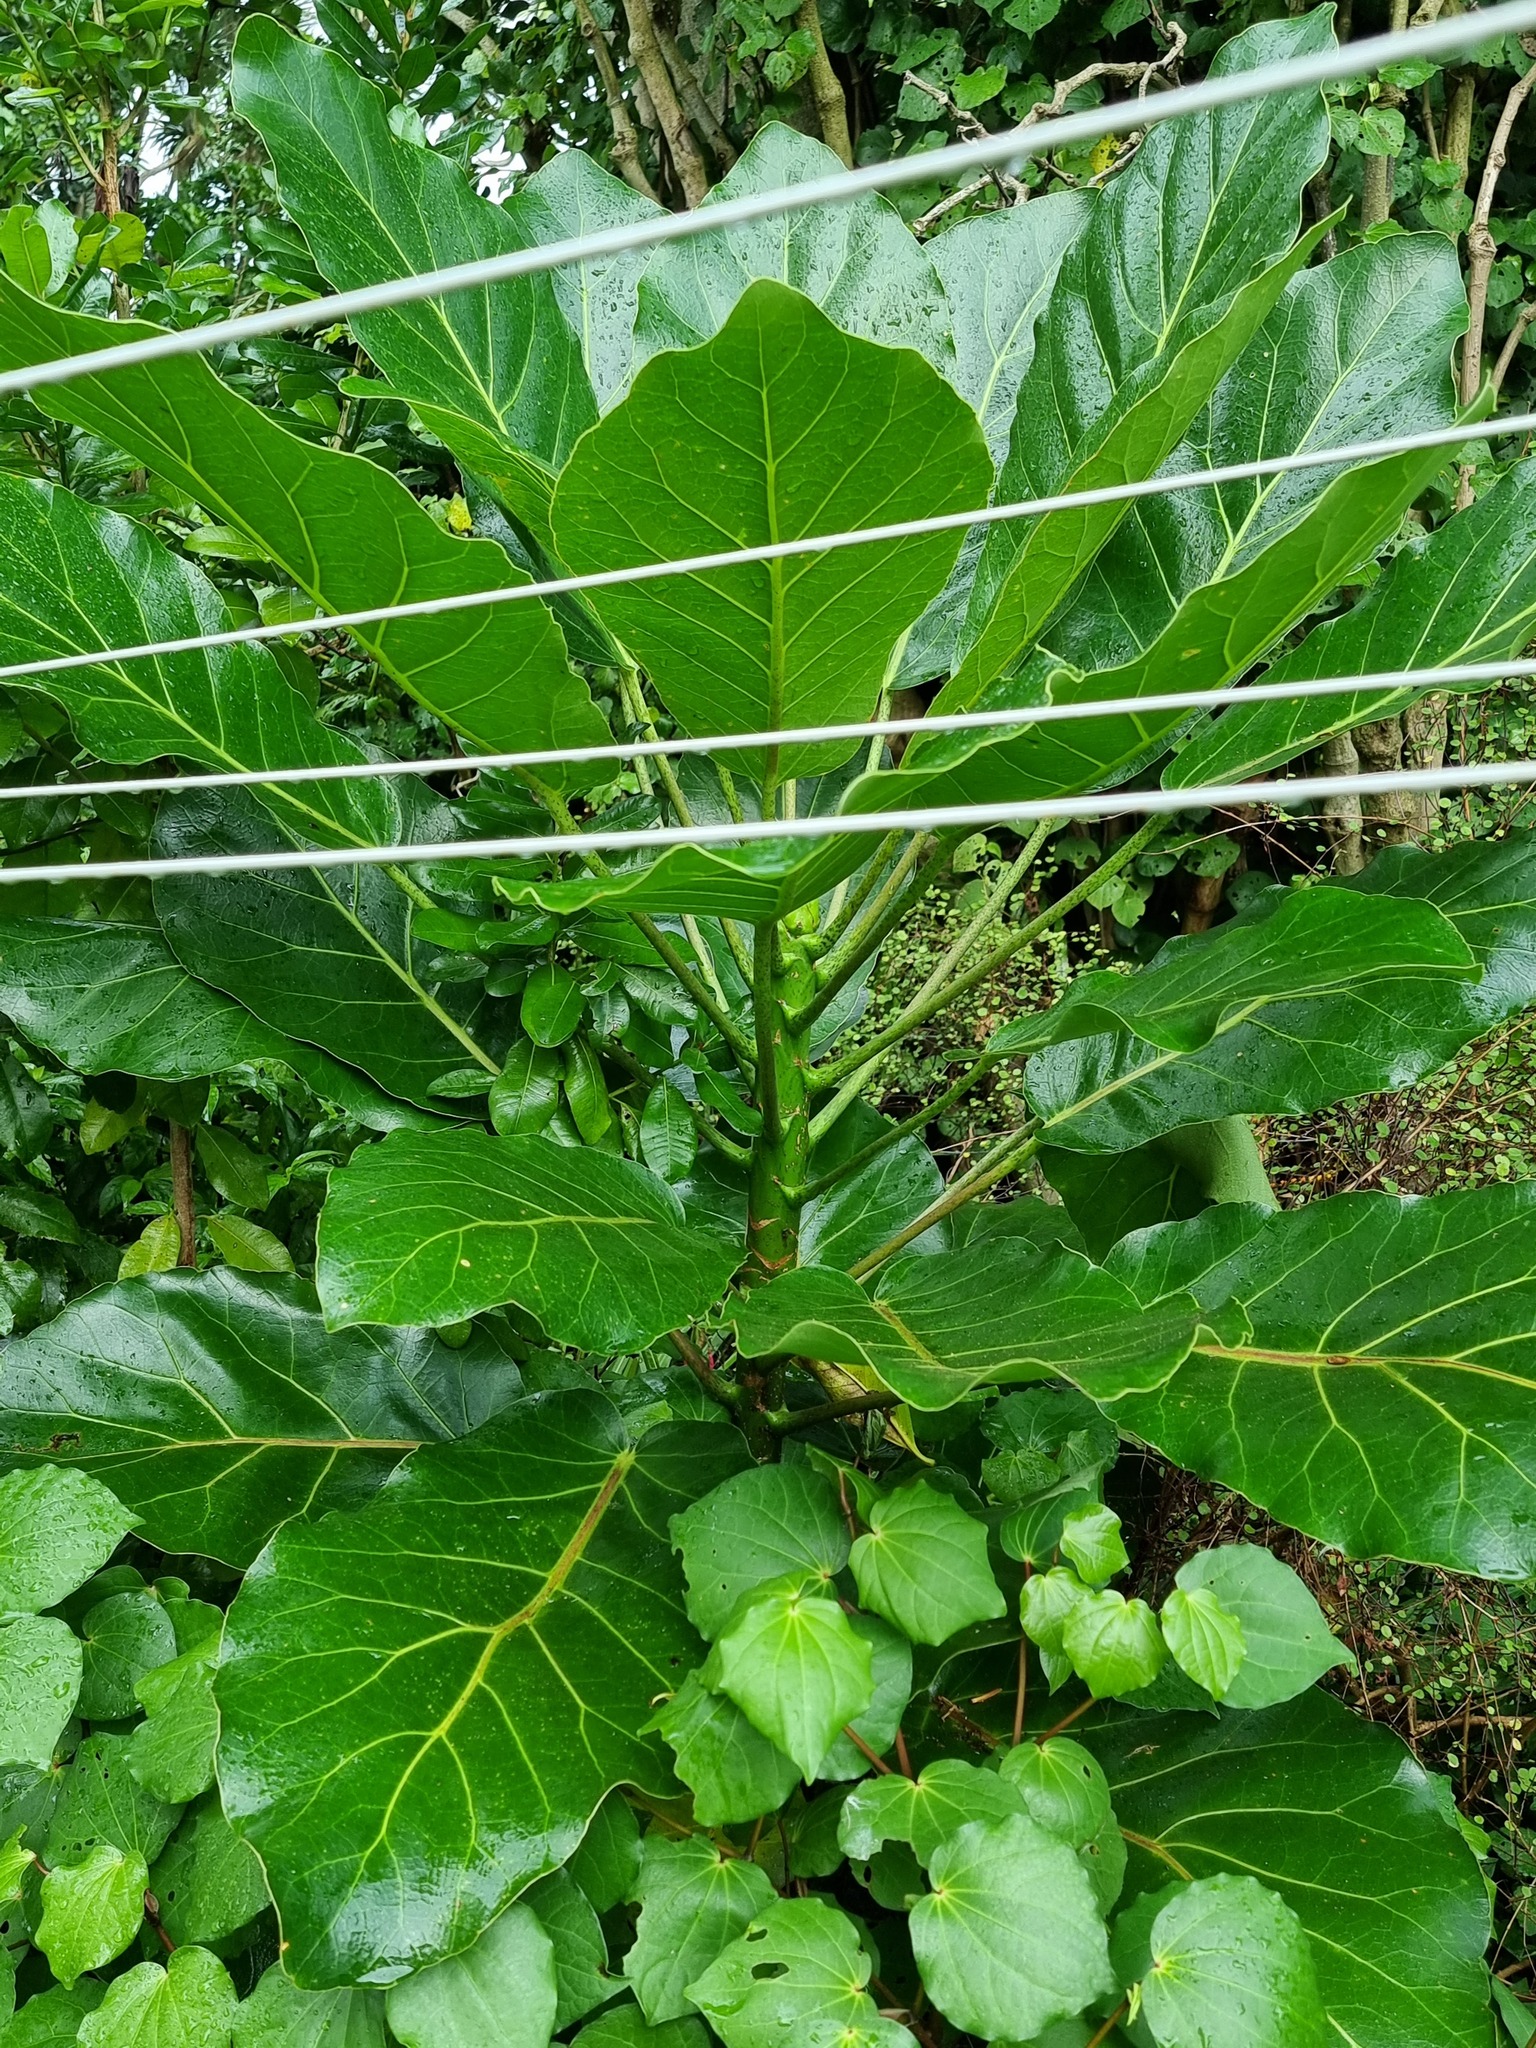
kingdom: Plantae
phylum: Tracheophyta
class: Magnoliopsida
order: Apiales
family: Araliaceae
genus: Meryta
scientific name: Meryta sinclairii
